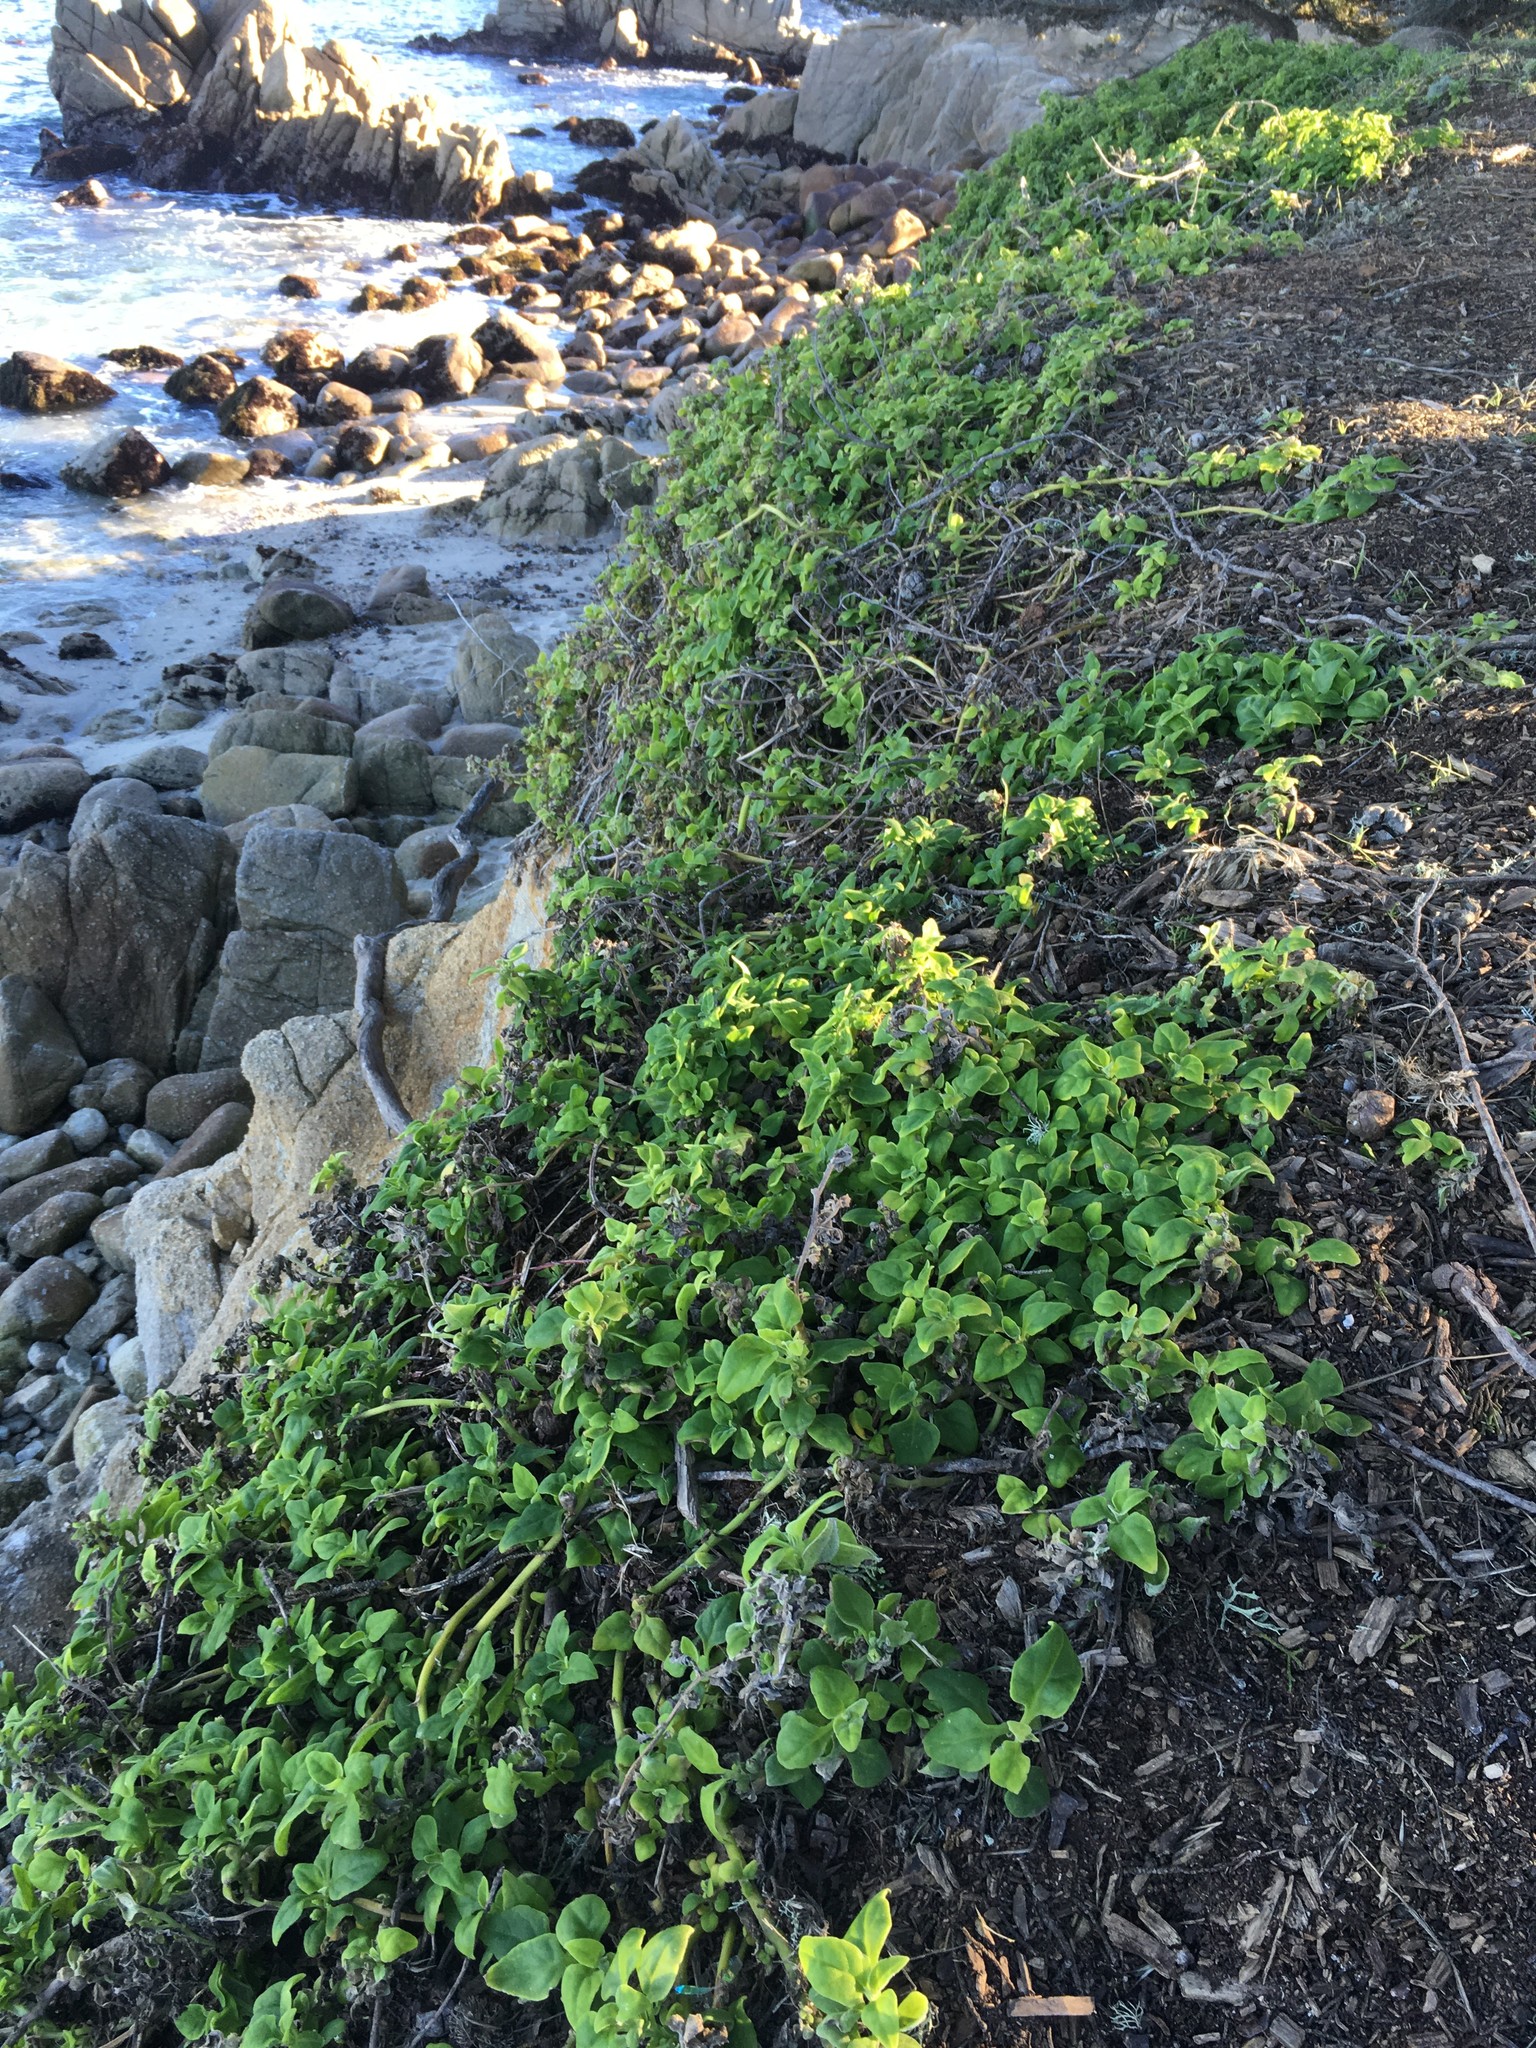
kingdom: Plantae
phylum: Tracheophyta
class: Magnoliopsida
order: Caryophyllales
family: Aizoaceae
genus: Tetragonia
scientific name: Tetragonia tetragonoides
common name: New zealand-spinach
